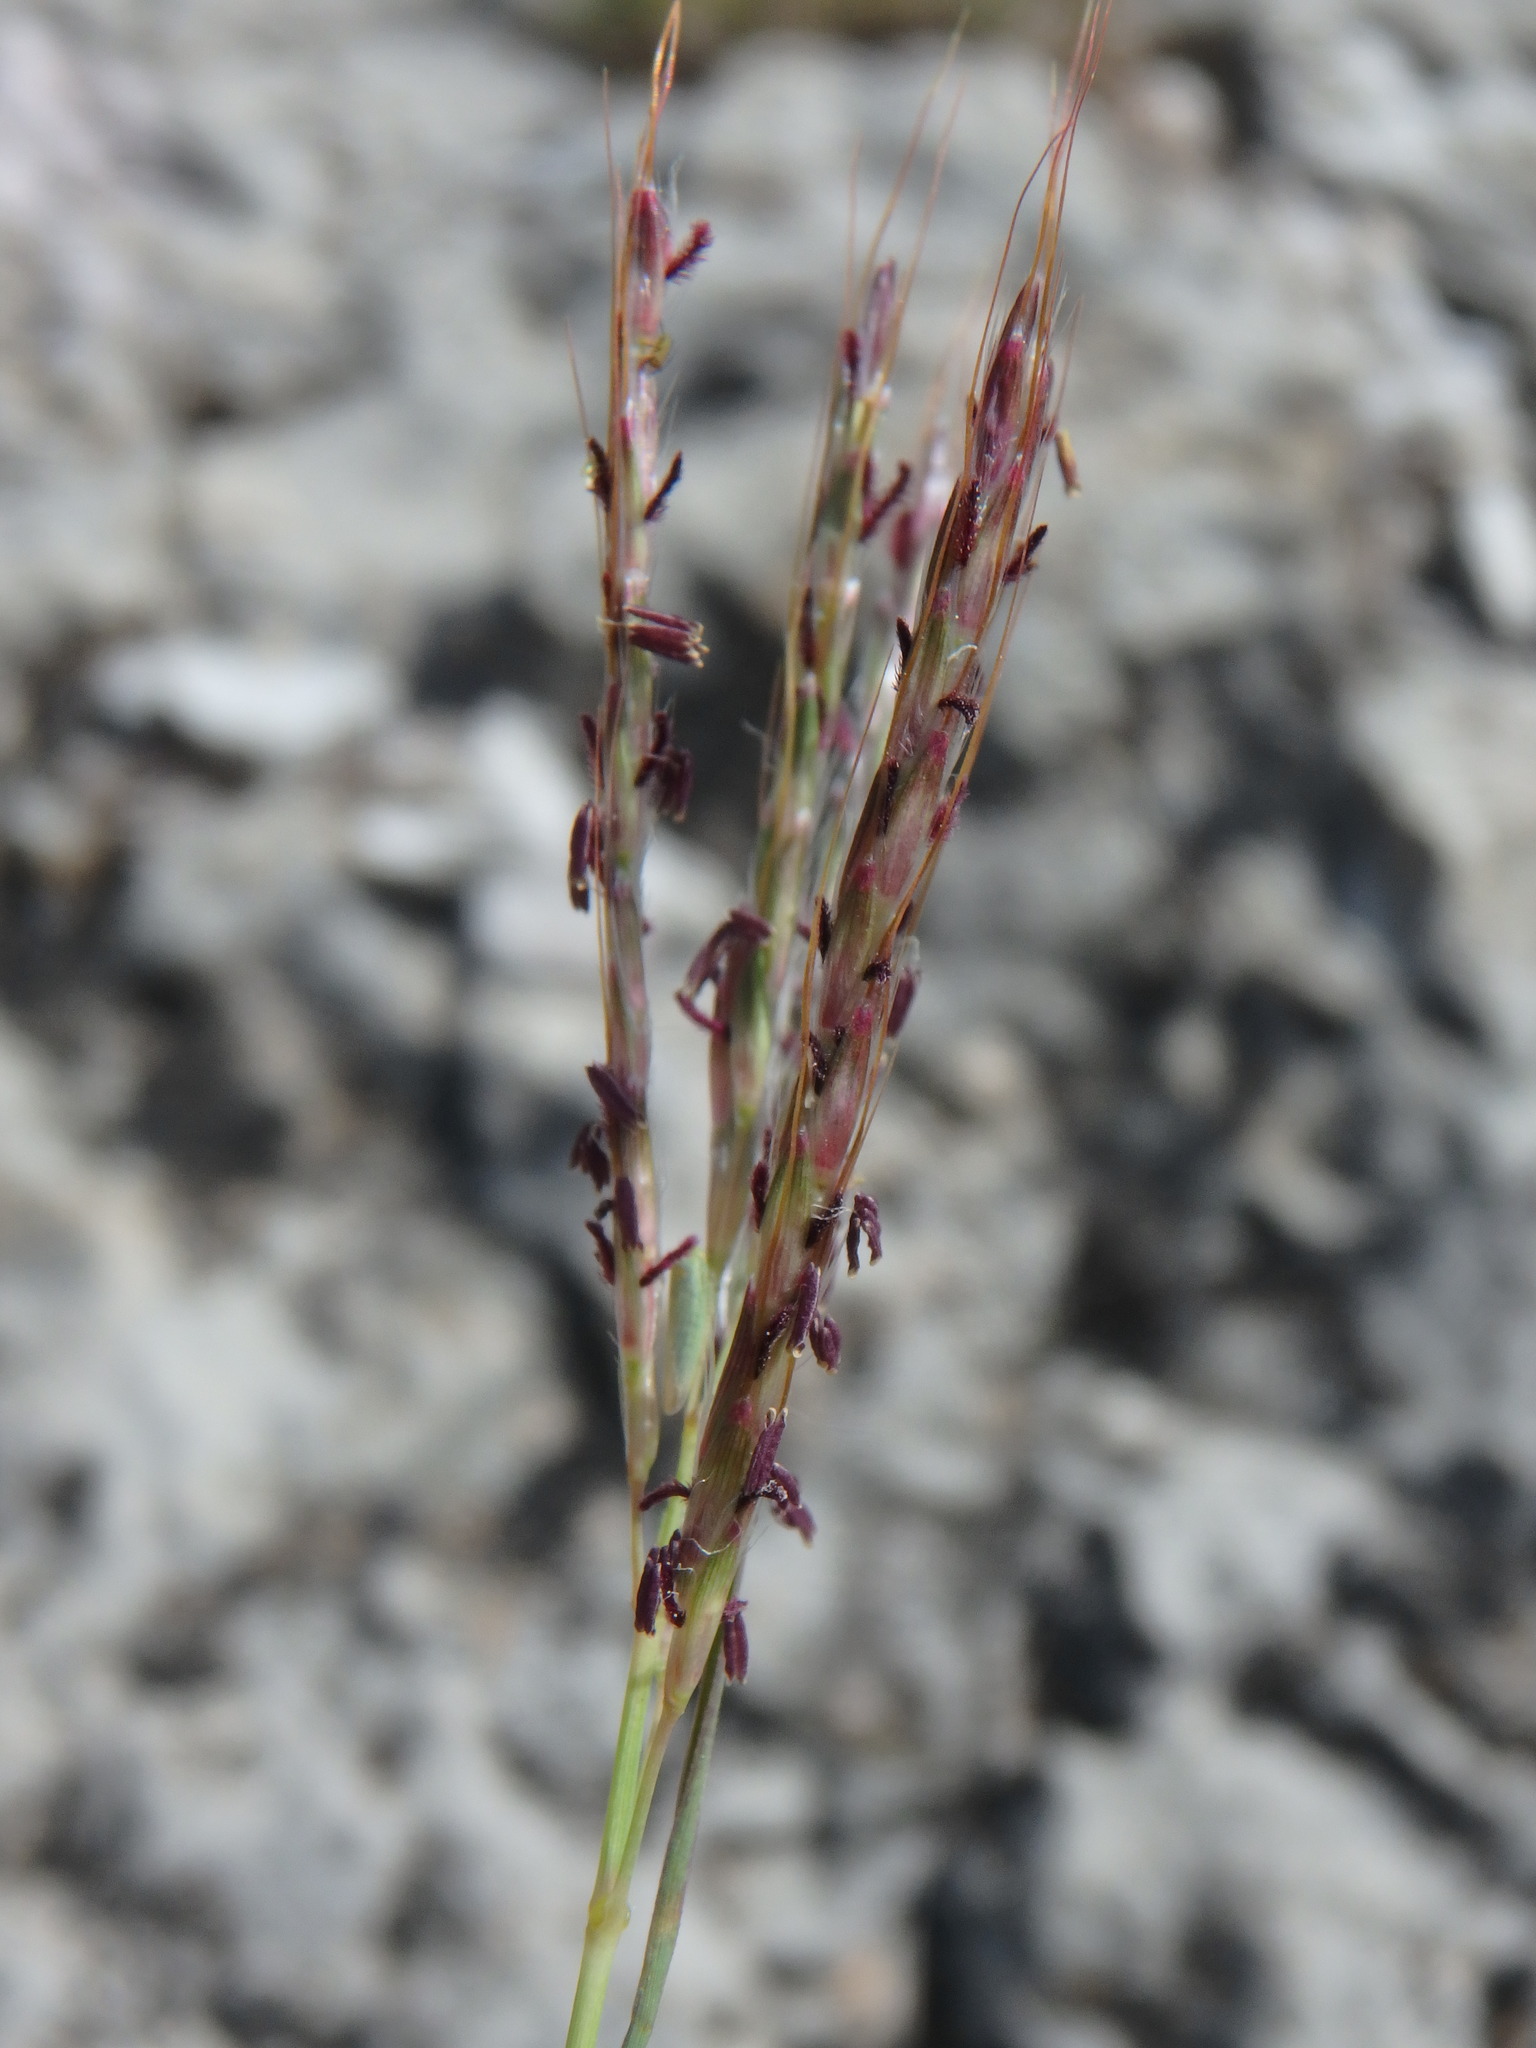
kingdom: Plantae
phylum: Tracheophyta
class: Liliopsida
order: Poales
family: Poaceae
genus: Bothriochloa
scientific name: Bothriochloa ischaemum
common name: Yellow bluestem
